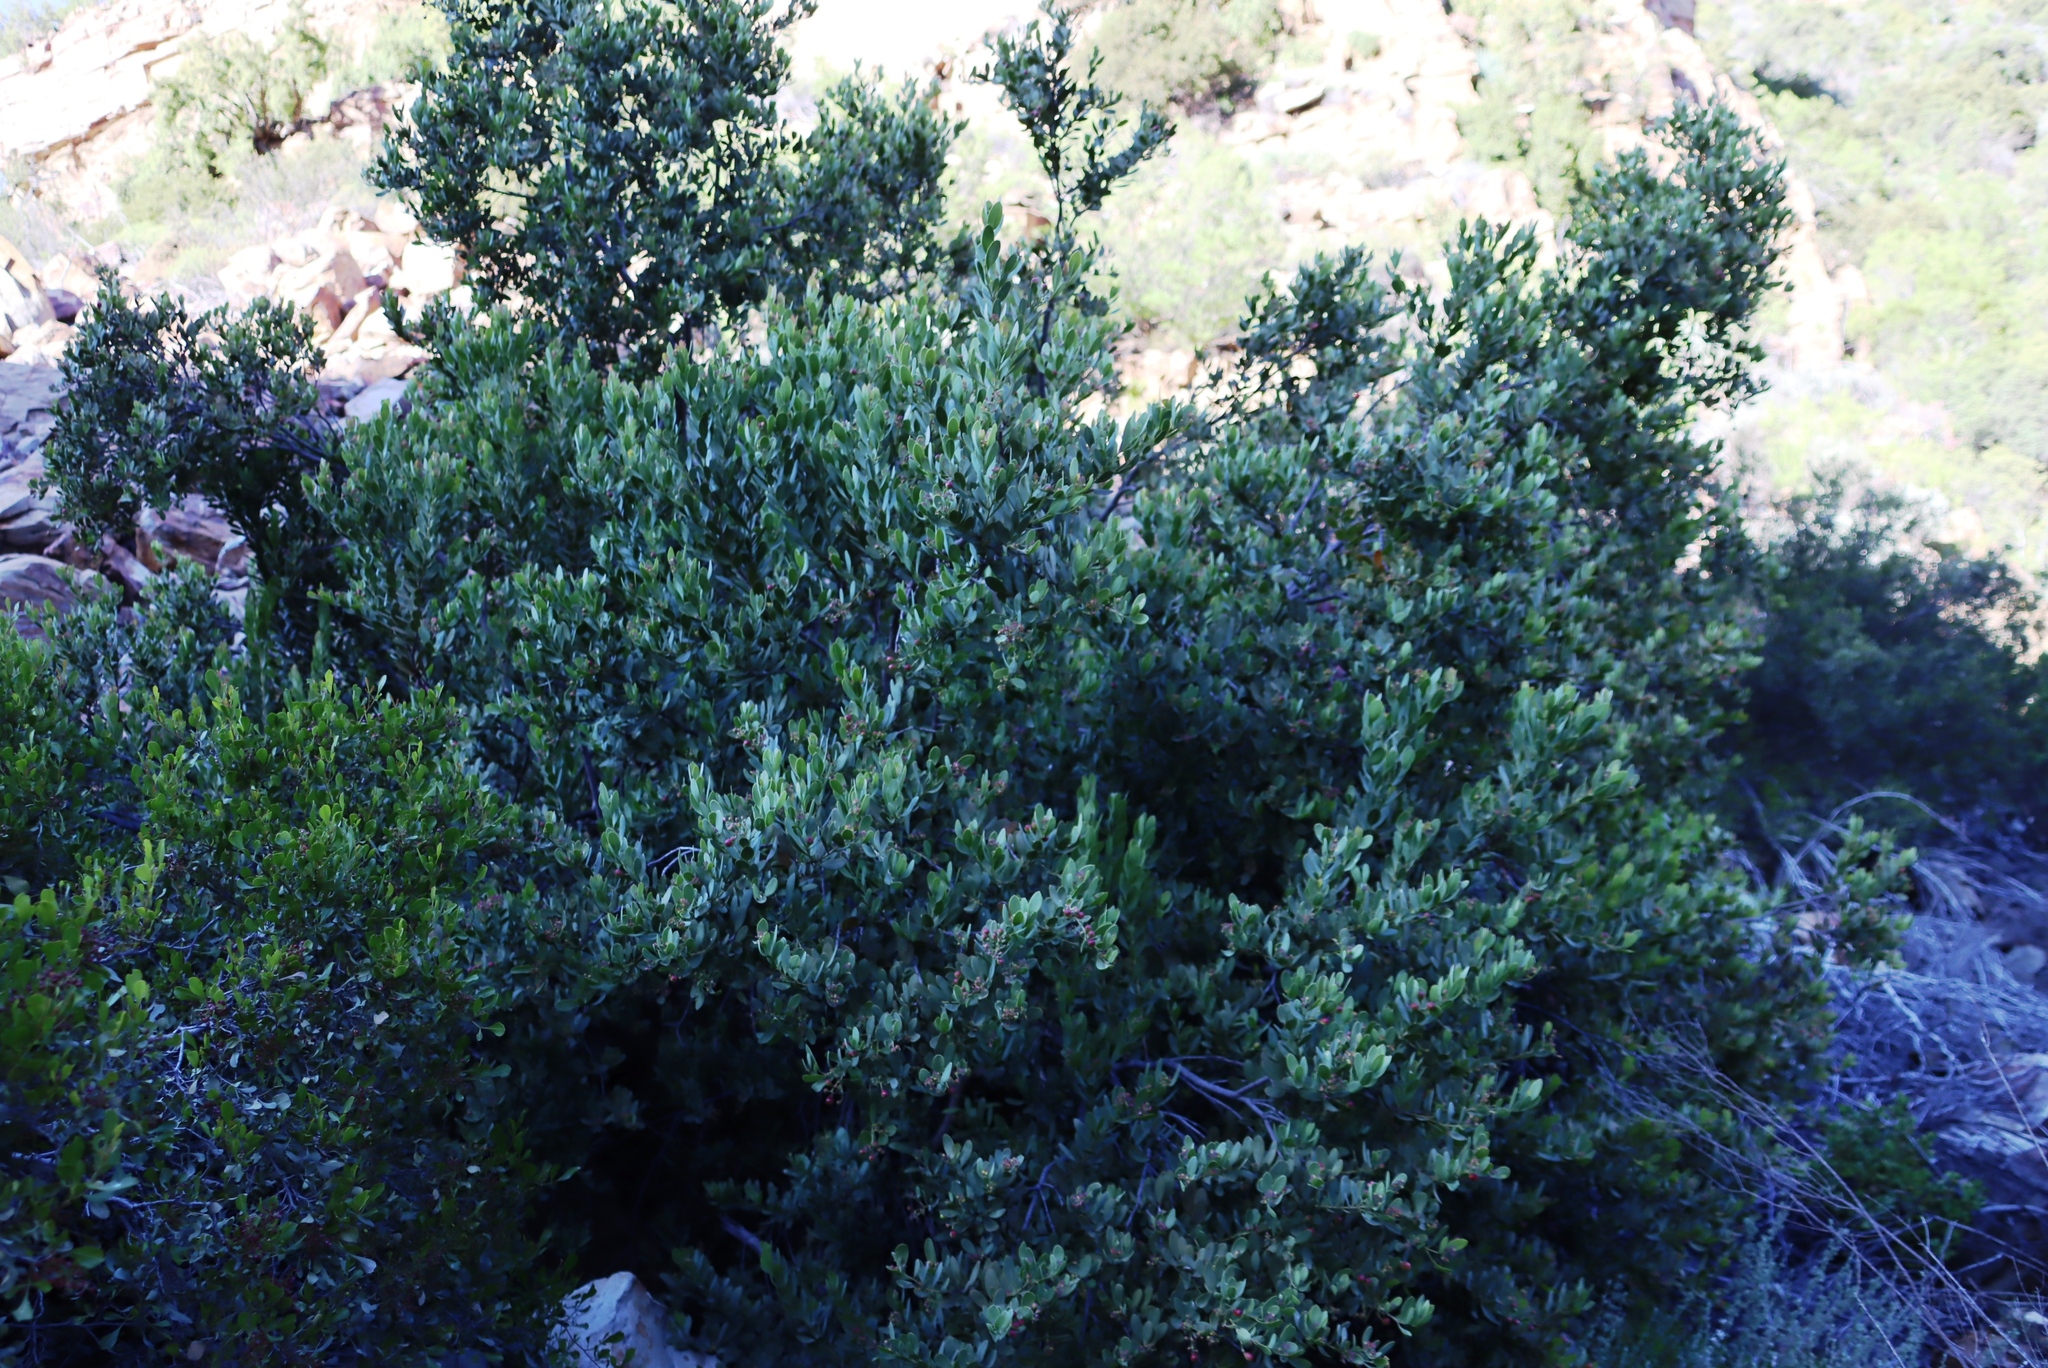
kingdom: Plantae
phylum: Tracheophyta
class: Magnoliopsida
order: Santalales
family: Santalaceae
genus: Osyris
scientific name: Osyris compressa
